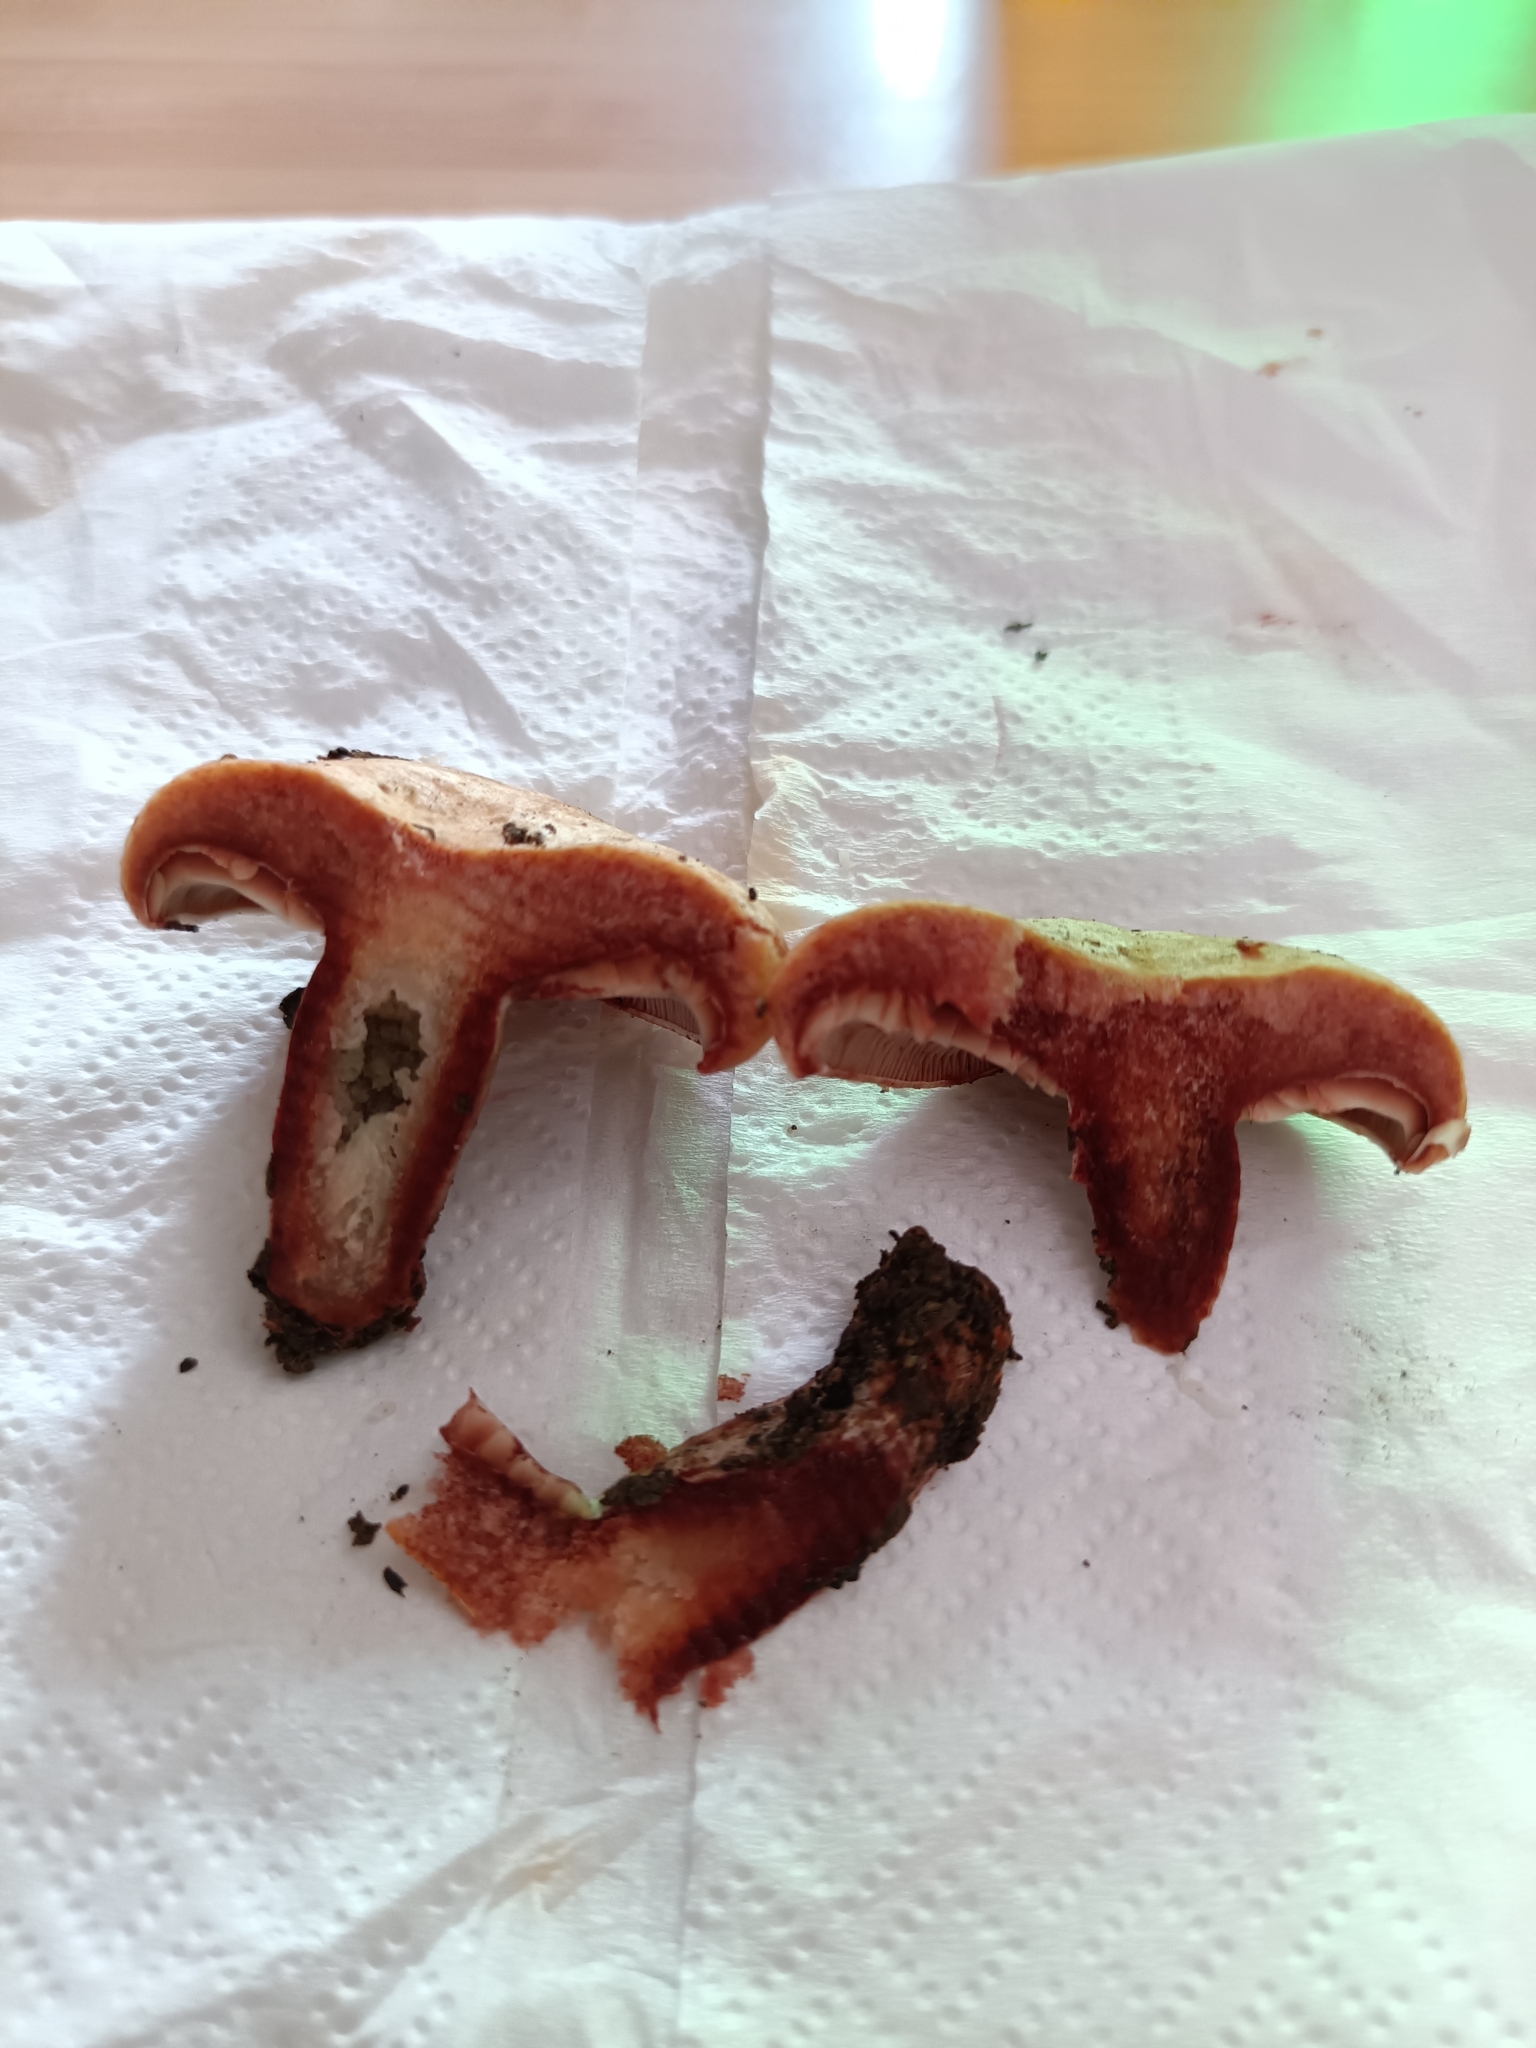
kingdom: Fungi
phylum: Basidiomycota
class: Agaricomycetes
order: Russulales
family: Russulaceae
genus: Lactarius
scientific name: Lactarius sanguifluus
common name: Bloody milkcap
